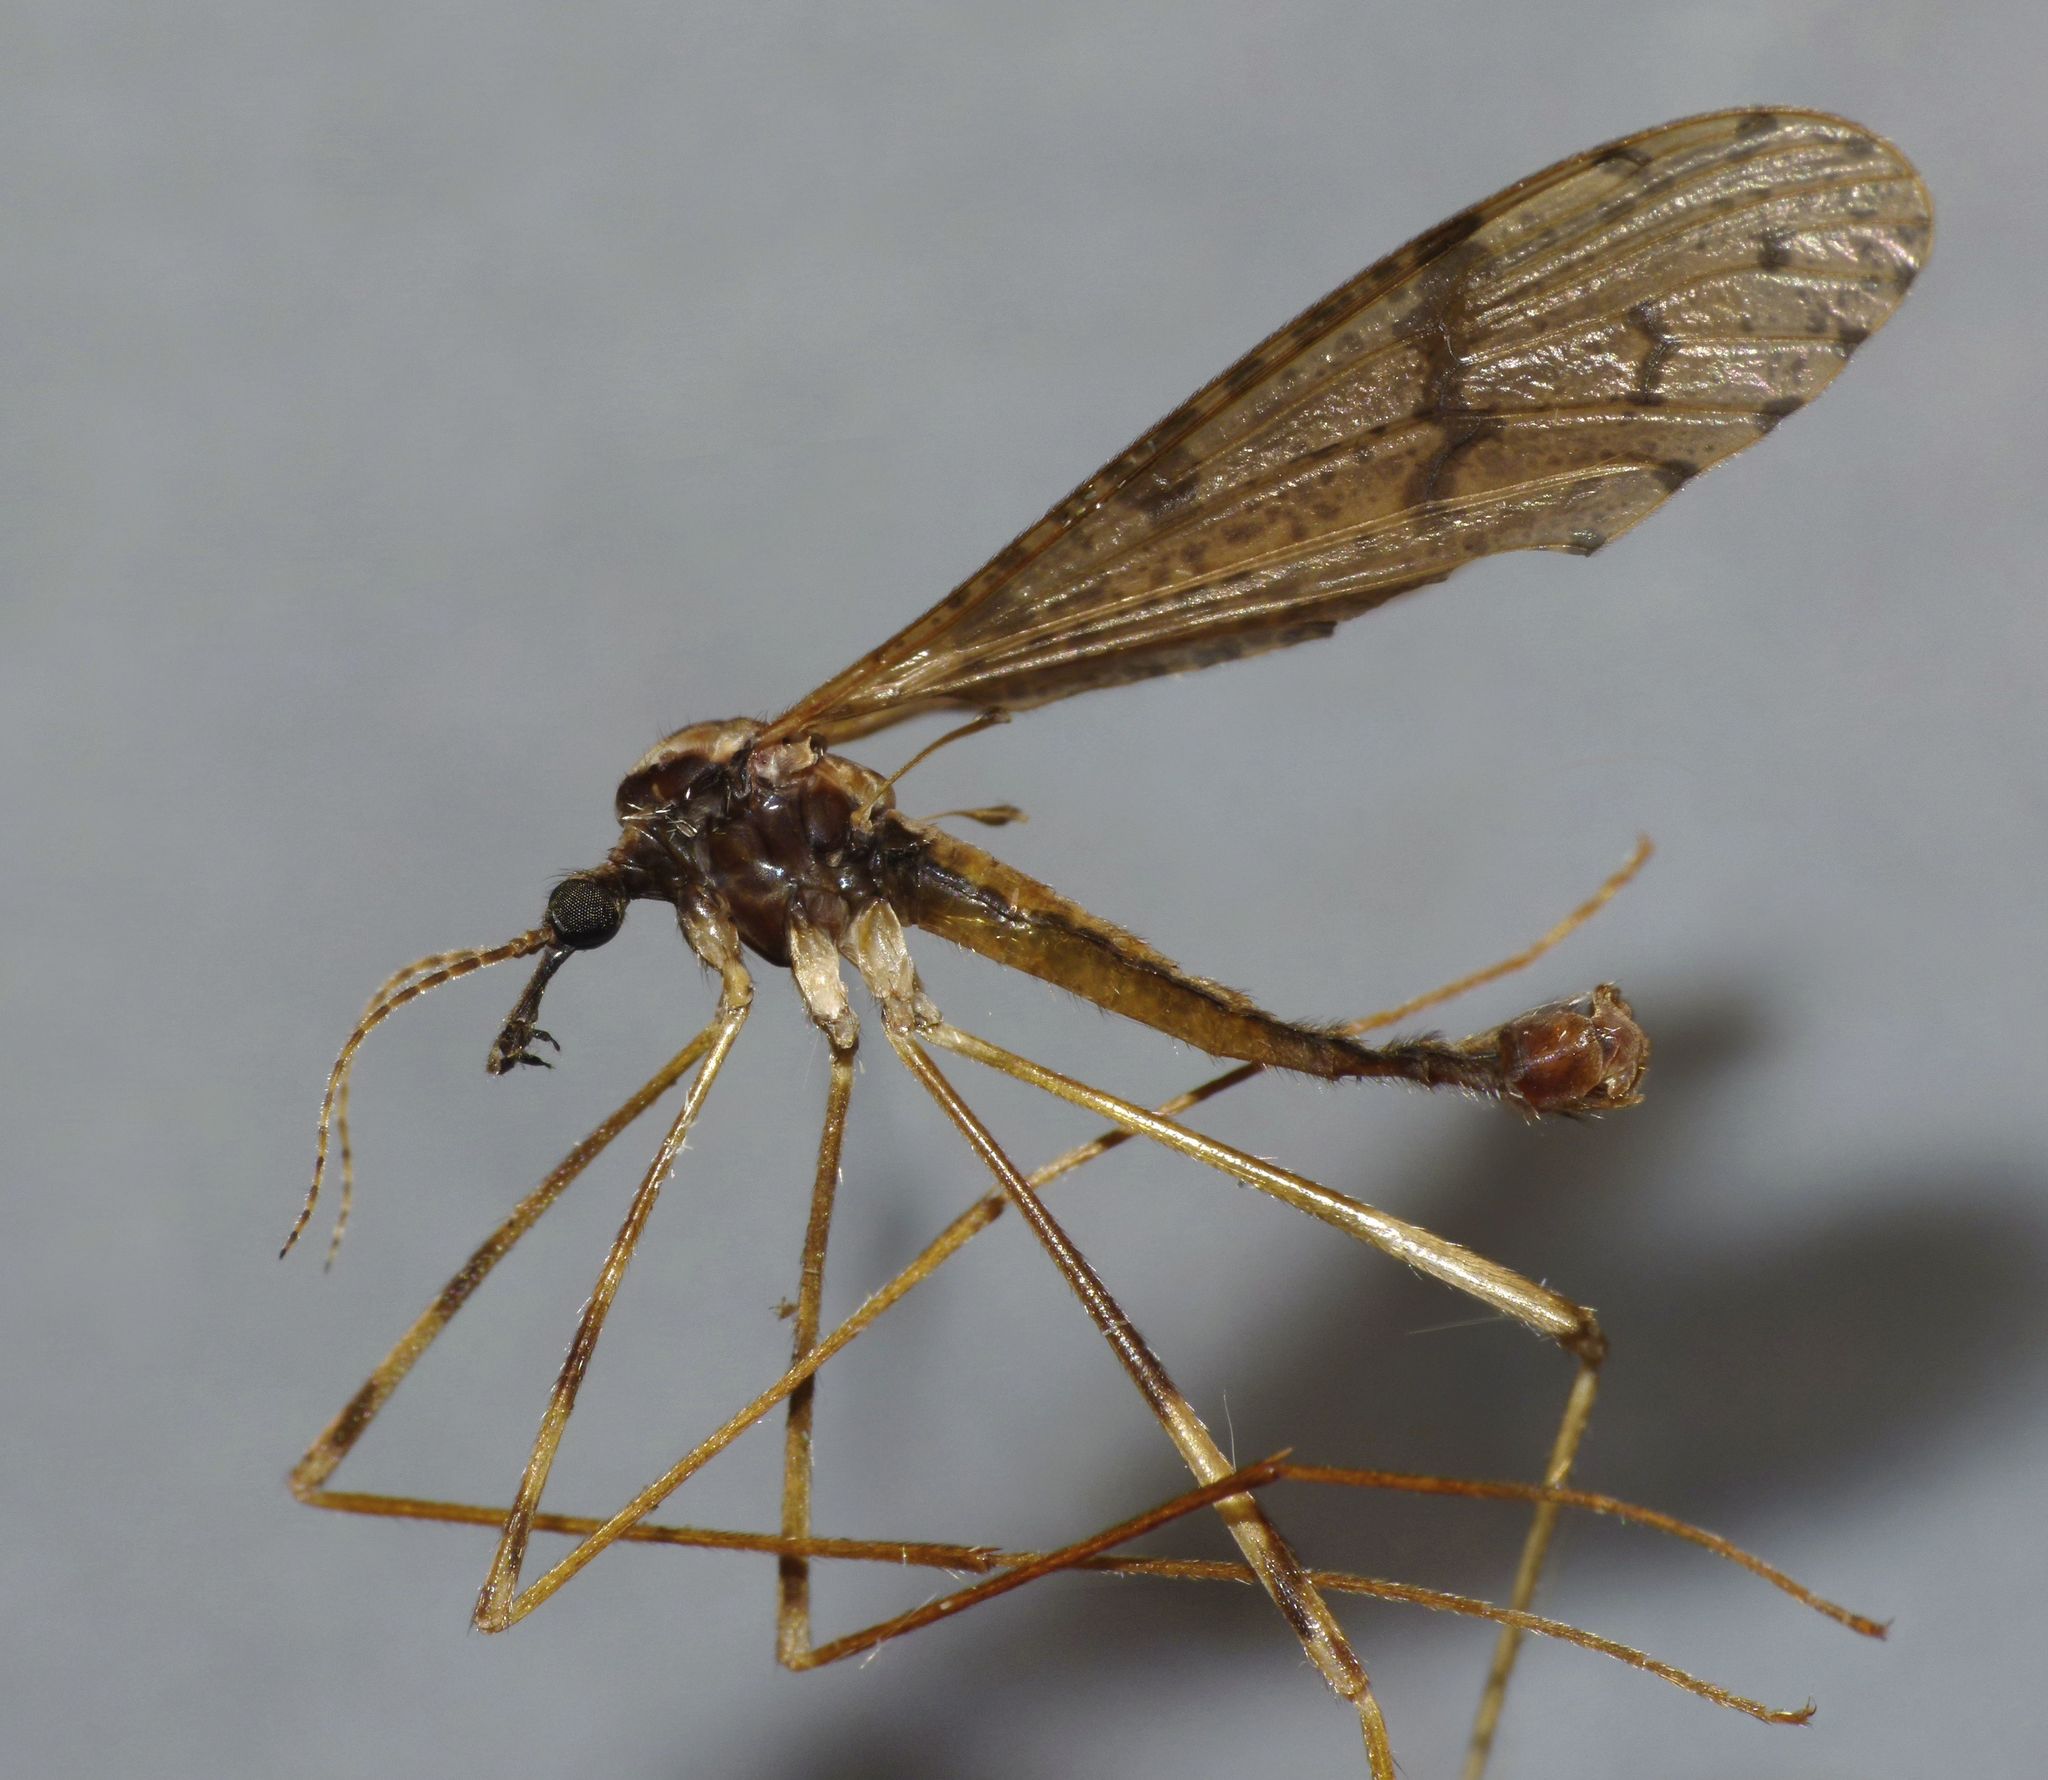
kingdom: Animalia
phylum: Arthropoda
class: Insecta
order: Diptera
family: Limoniidae
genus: Rhamphophila
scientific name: Rhamphophila sinistra
